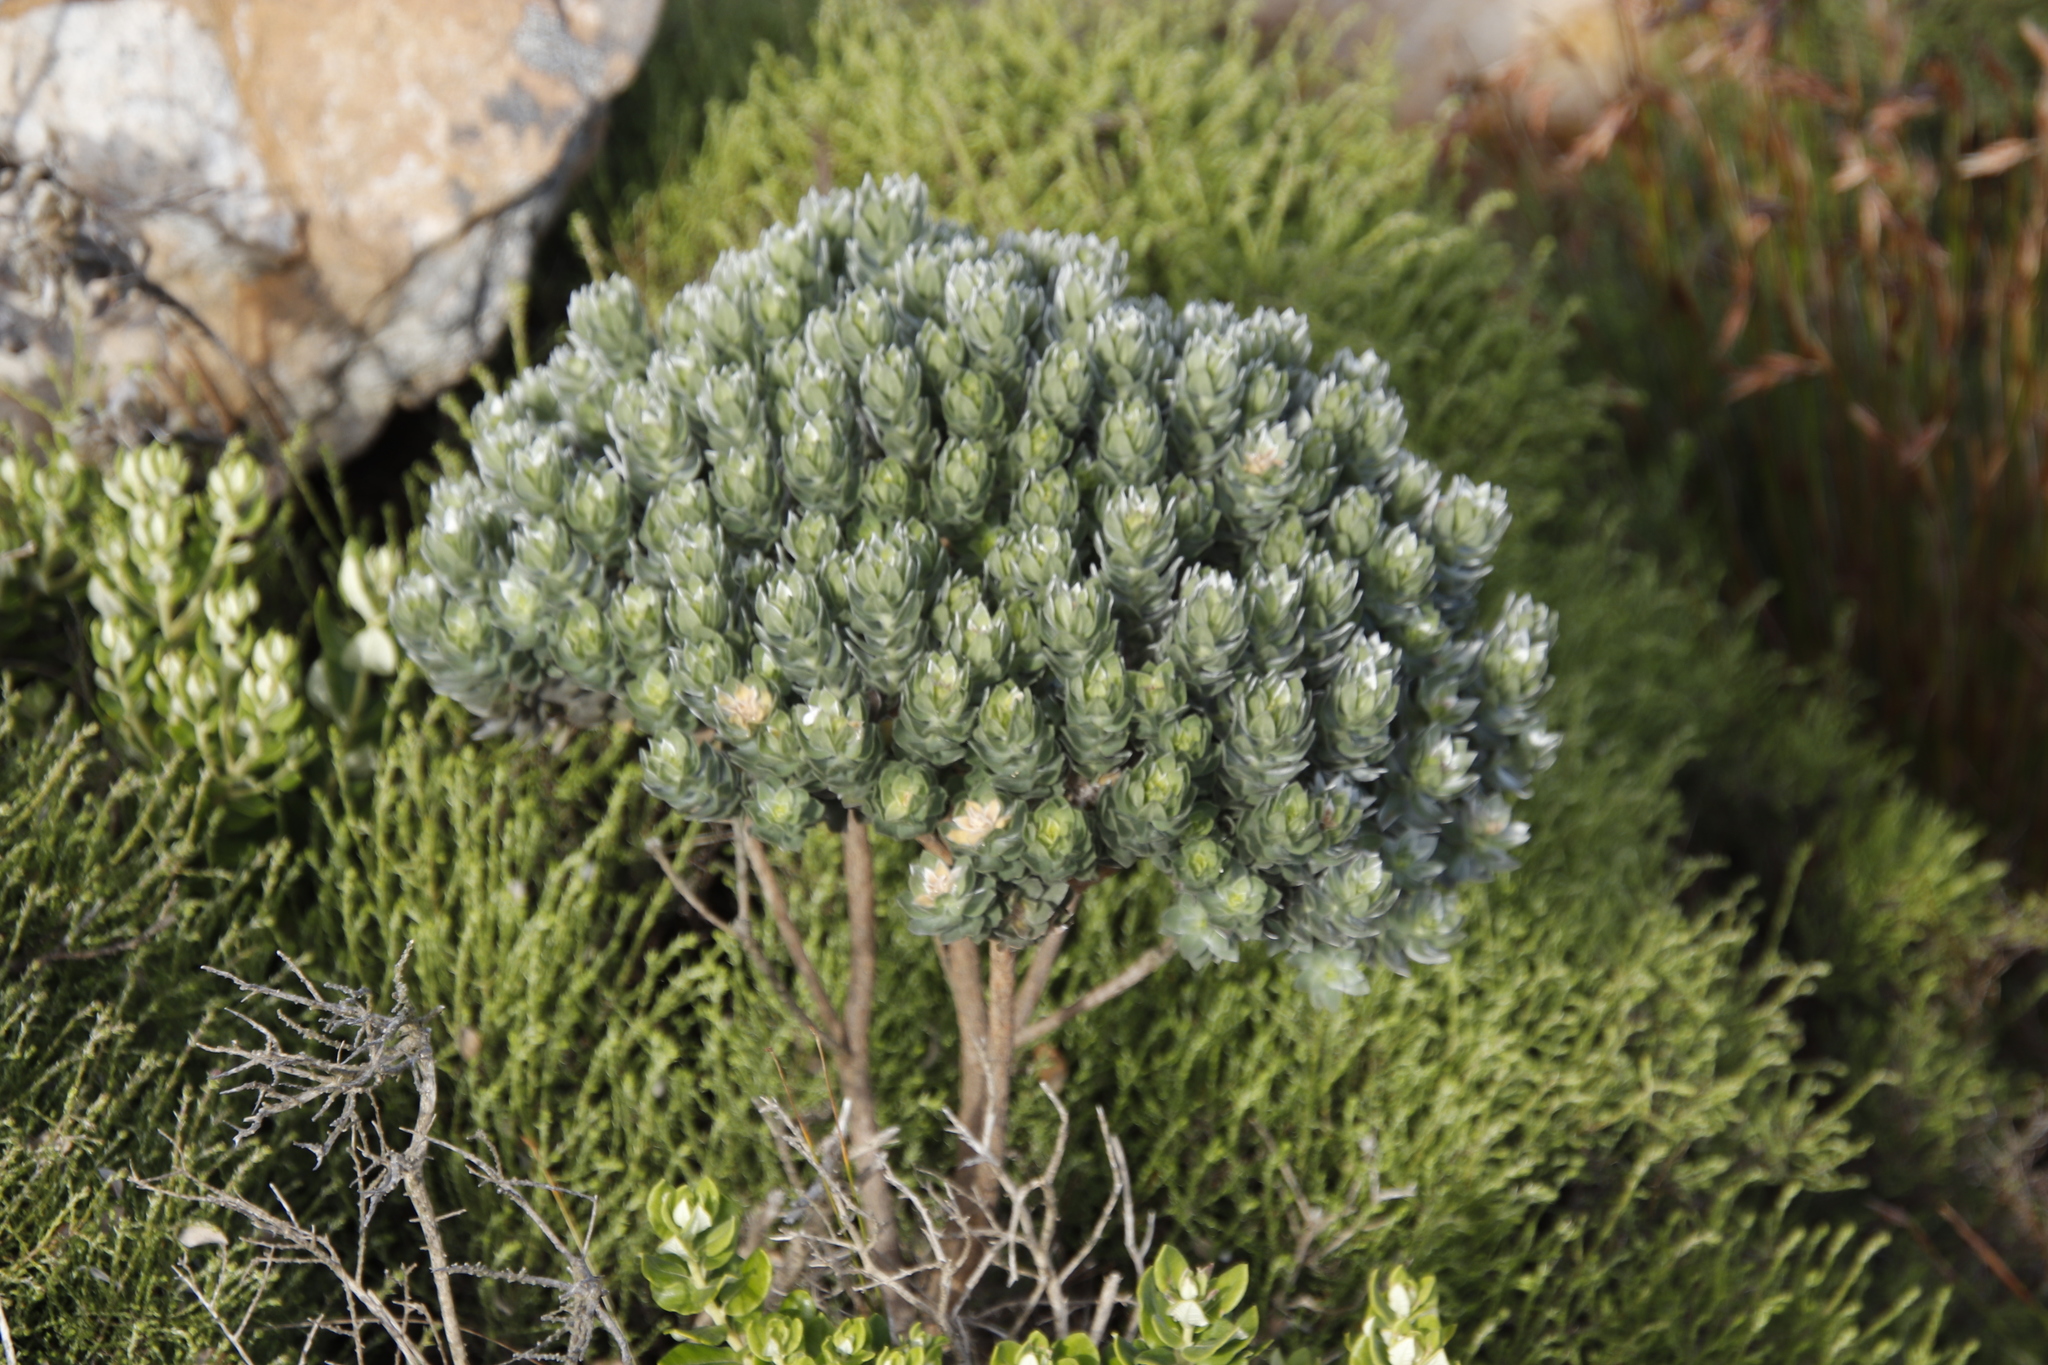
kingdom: Plantae
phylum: Tracheophyta
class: Magnoliopsida
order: Fabales
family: Fabaceae
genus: Xiphotheca
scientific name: Xiphotheca fruticosa
